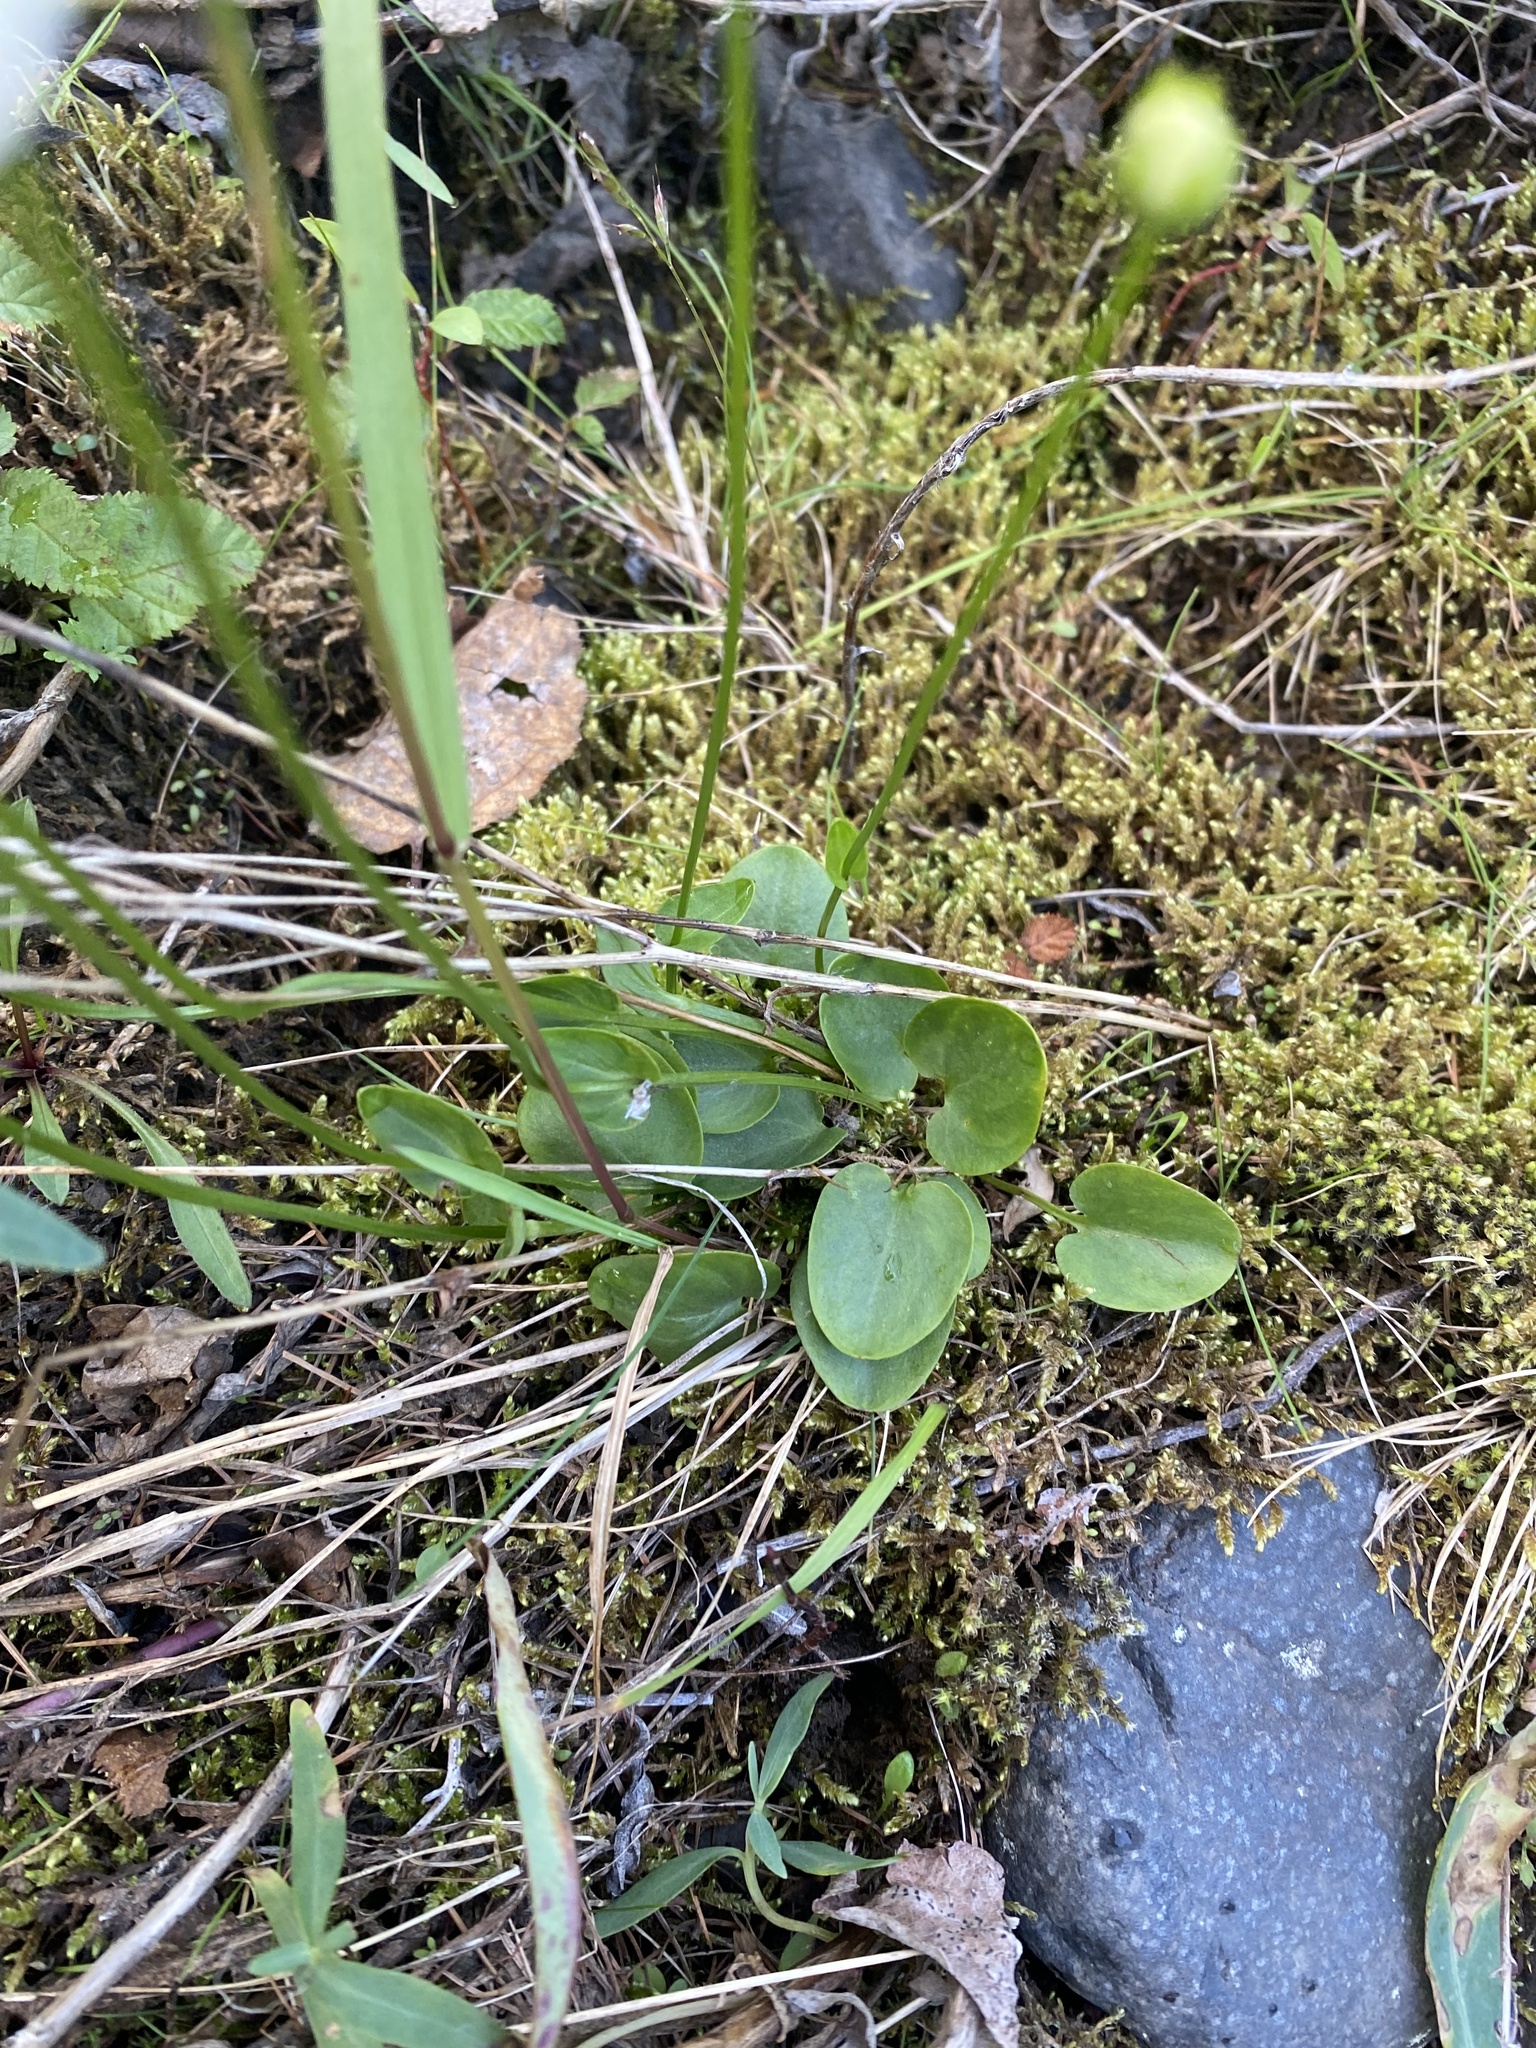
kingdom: Plantae
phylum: Tracheophyta
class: Magnoliopsida
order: Celastrales
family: Parnassiaceae
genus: Parnassia
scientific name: Parnassia palustris
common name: Grass-of-parnassus
